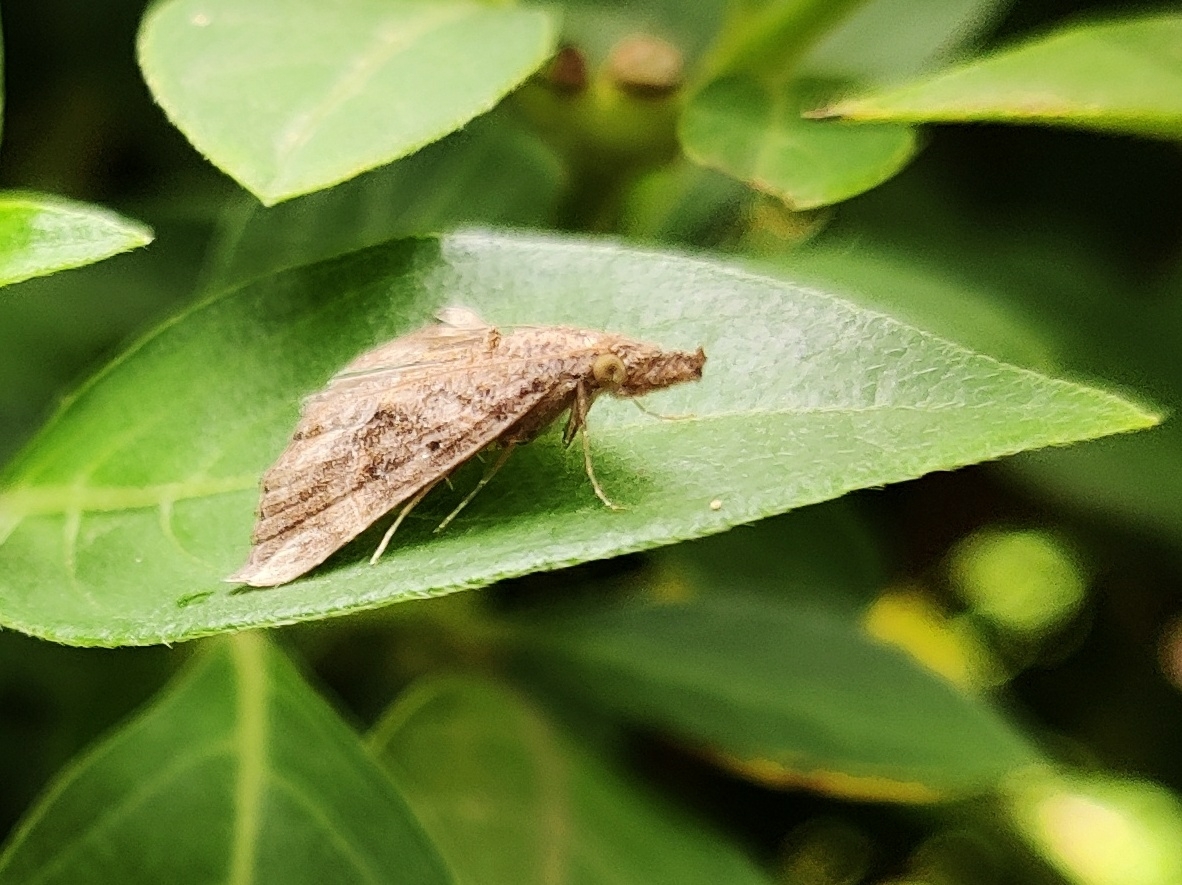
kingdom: Animalia
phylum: Arthropoda
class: Insecta
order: Lepidoptera
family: Erebidae
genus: Hypena
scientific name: Hypena commixtalis
